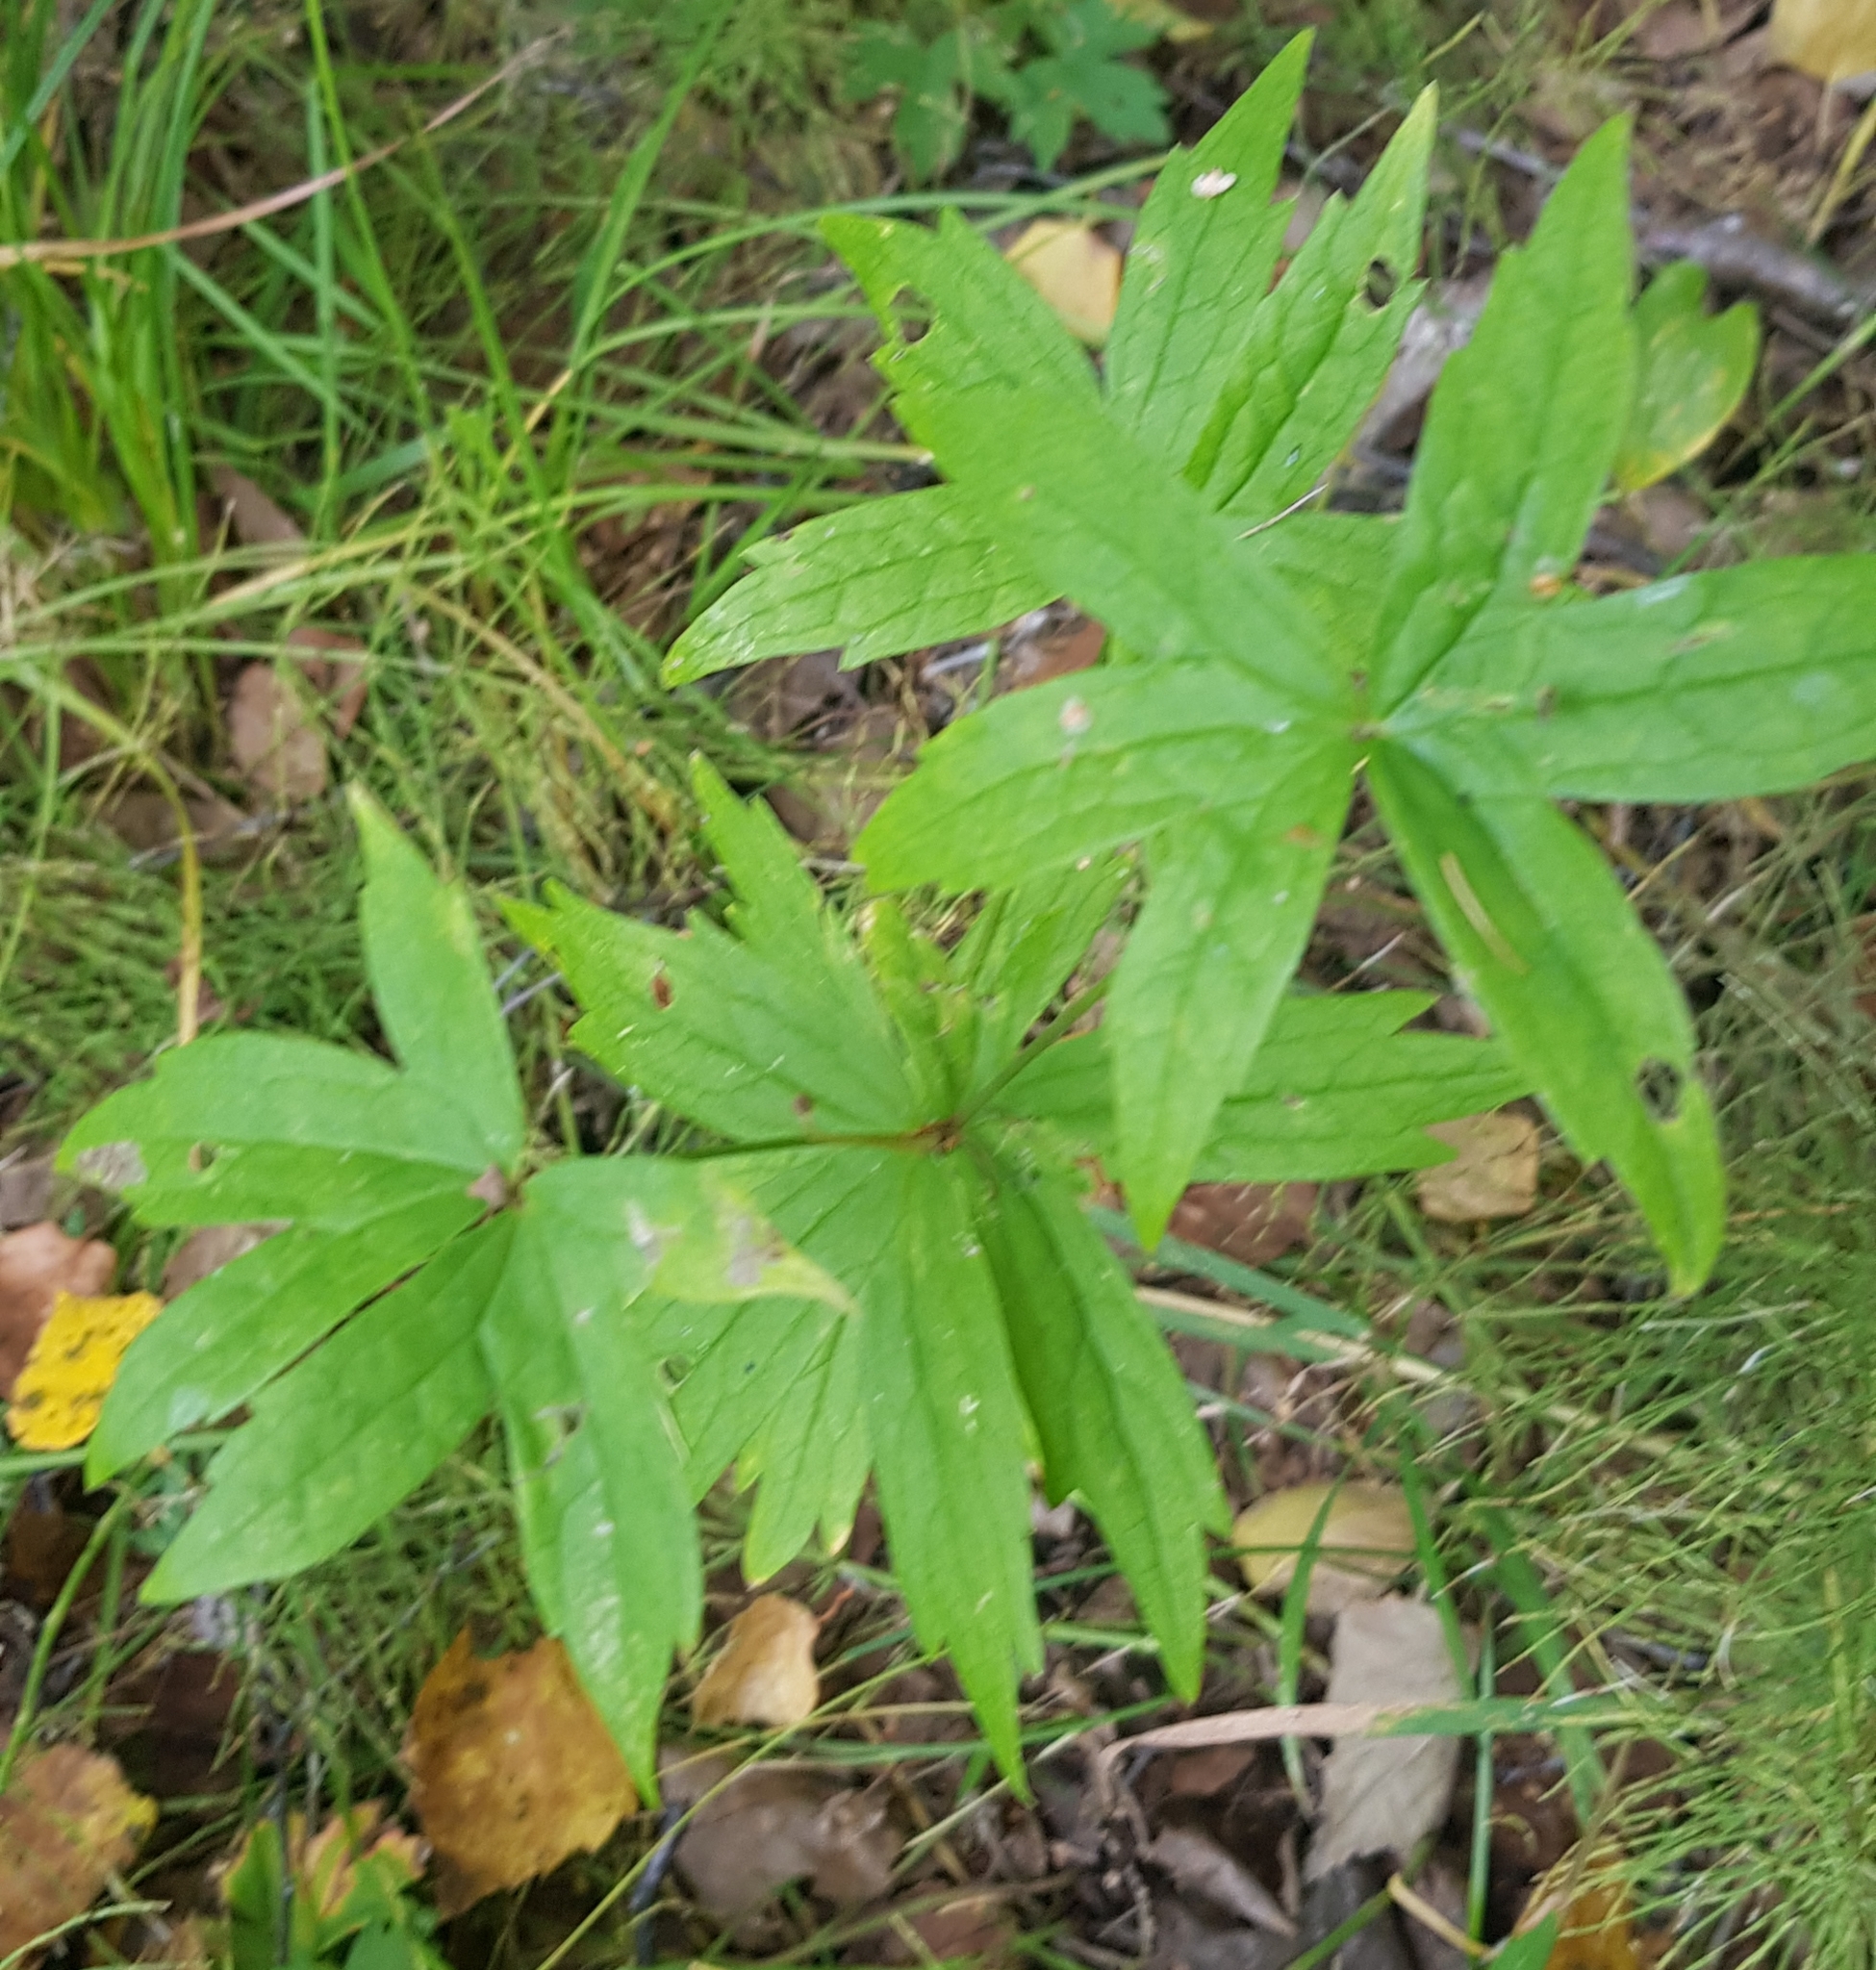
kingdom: Plantae
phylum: Tracheophyta
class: Magnoliopsida
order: Ranunculales
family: Ranunculaceae
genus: Anemonastrum
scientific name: Anemonastrum dichotomum
